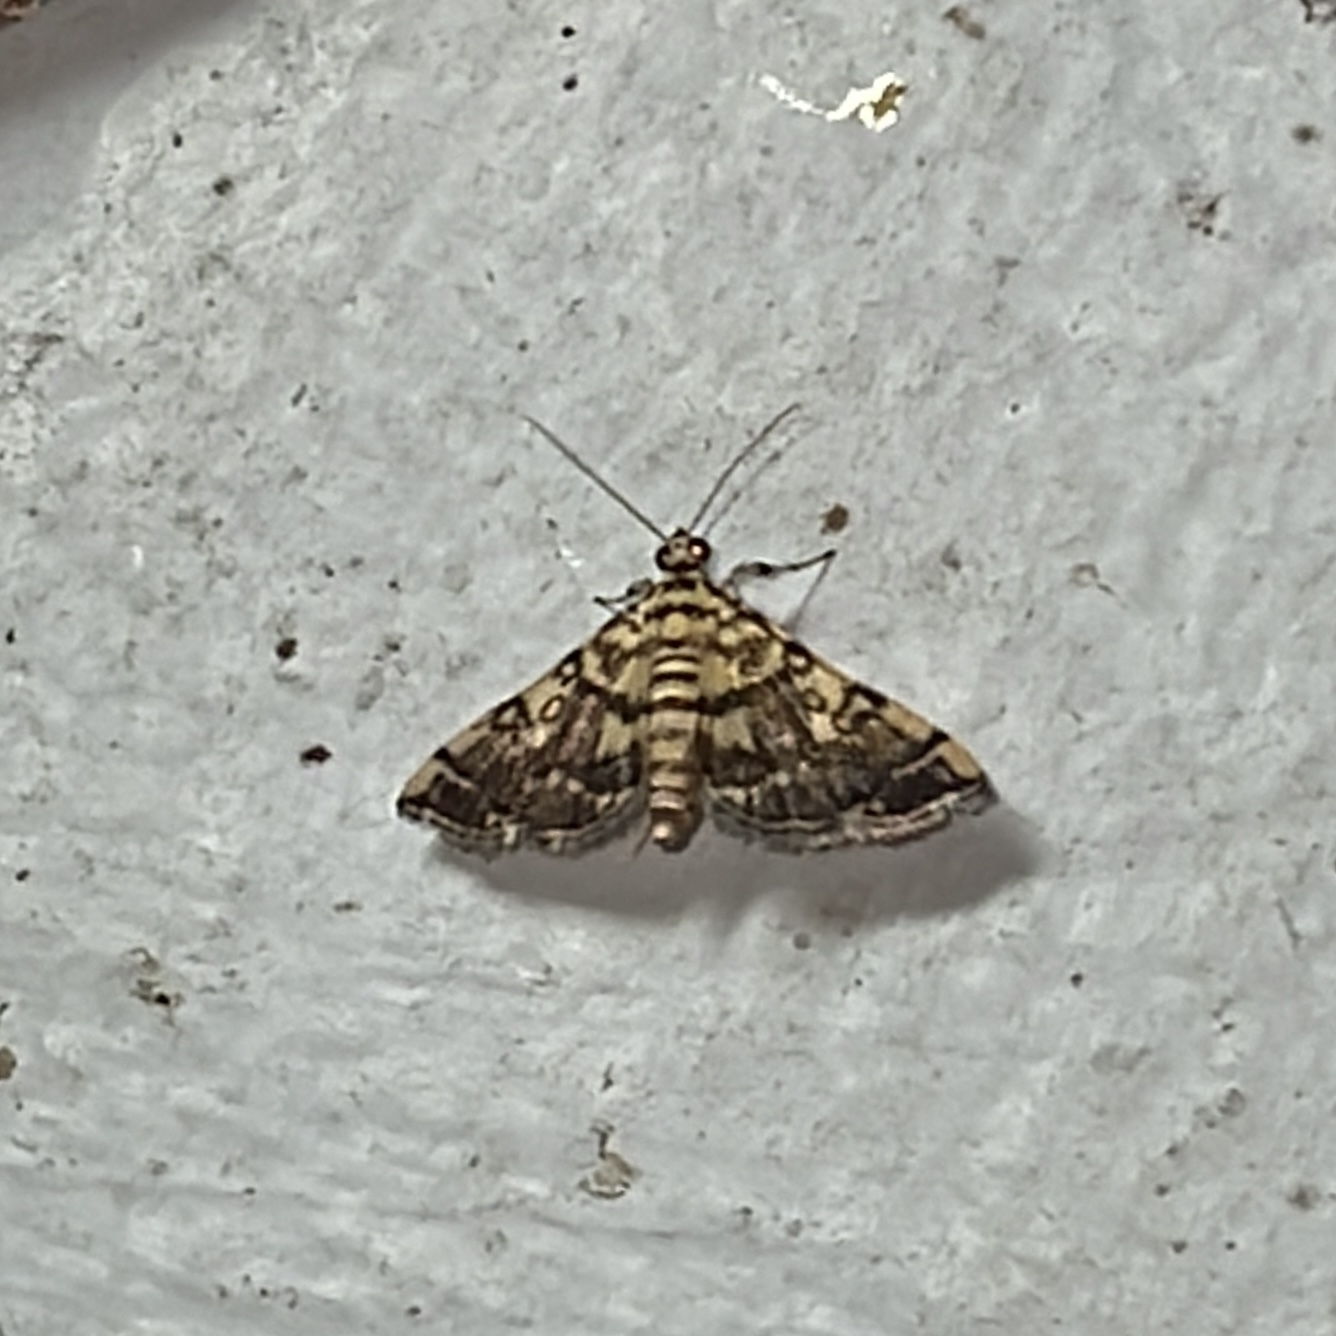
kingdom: Animalia
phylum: Arthropoda
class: Insecta
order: Lepidoptera
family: Crambidae
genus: Apogeshna
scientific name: Apogeshna stenialis
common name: Checkered apogeshna moth
